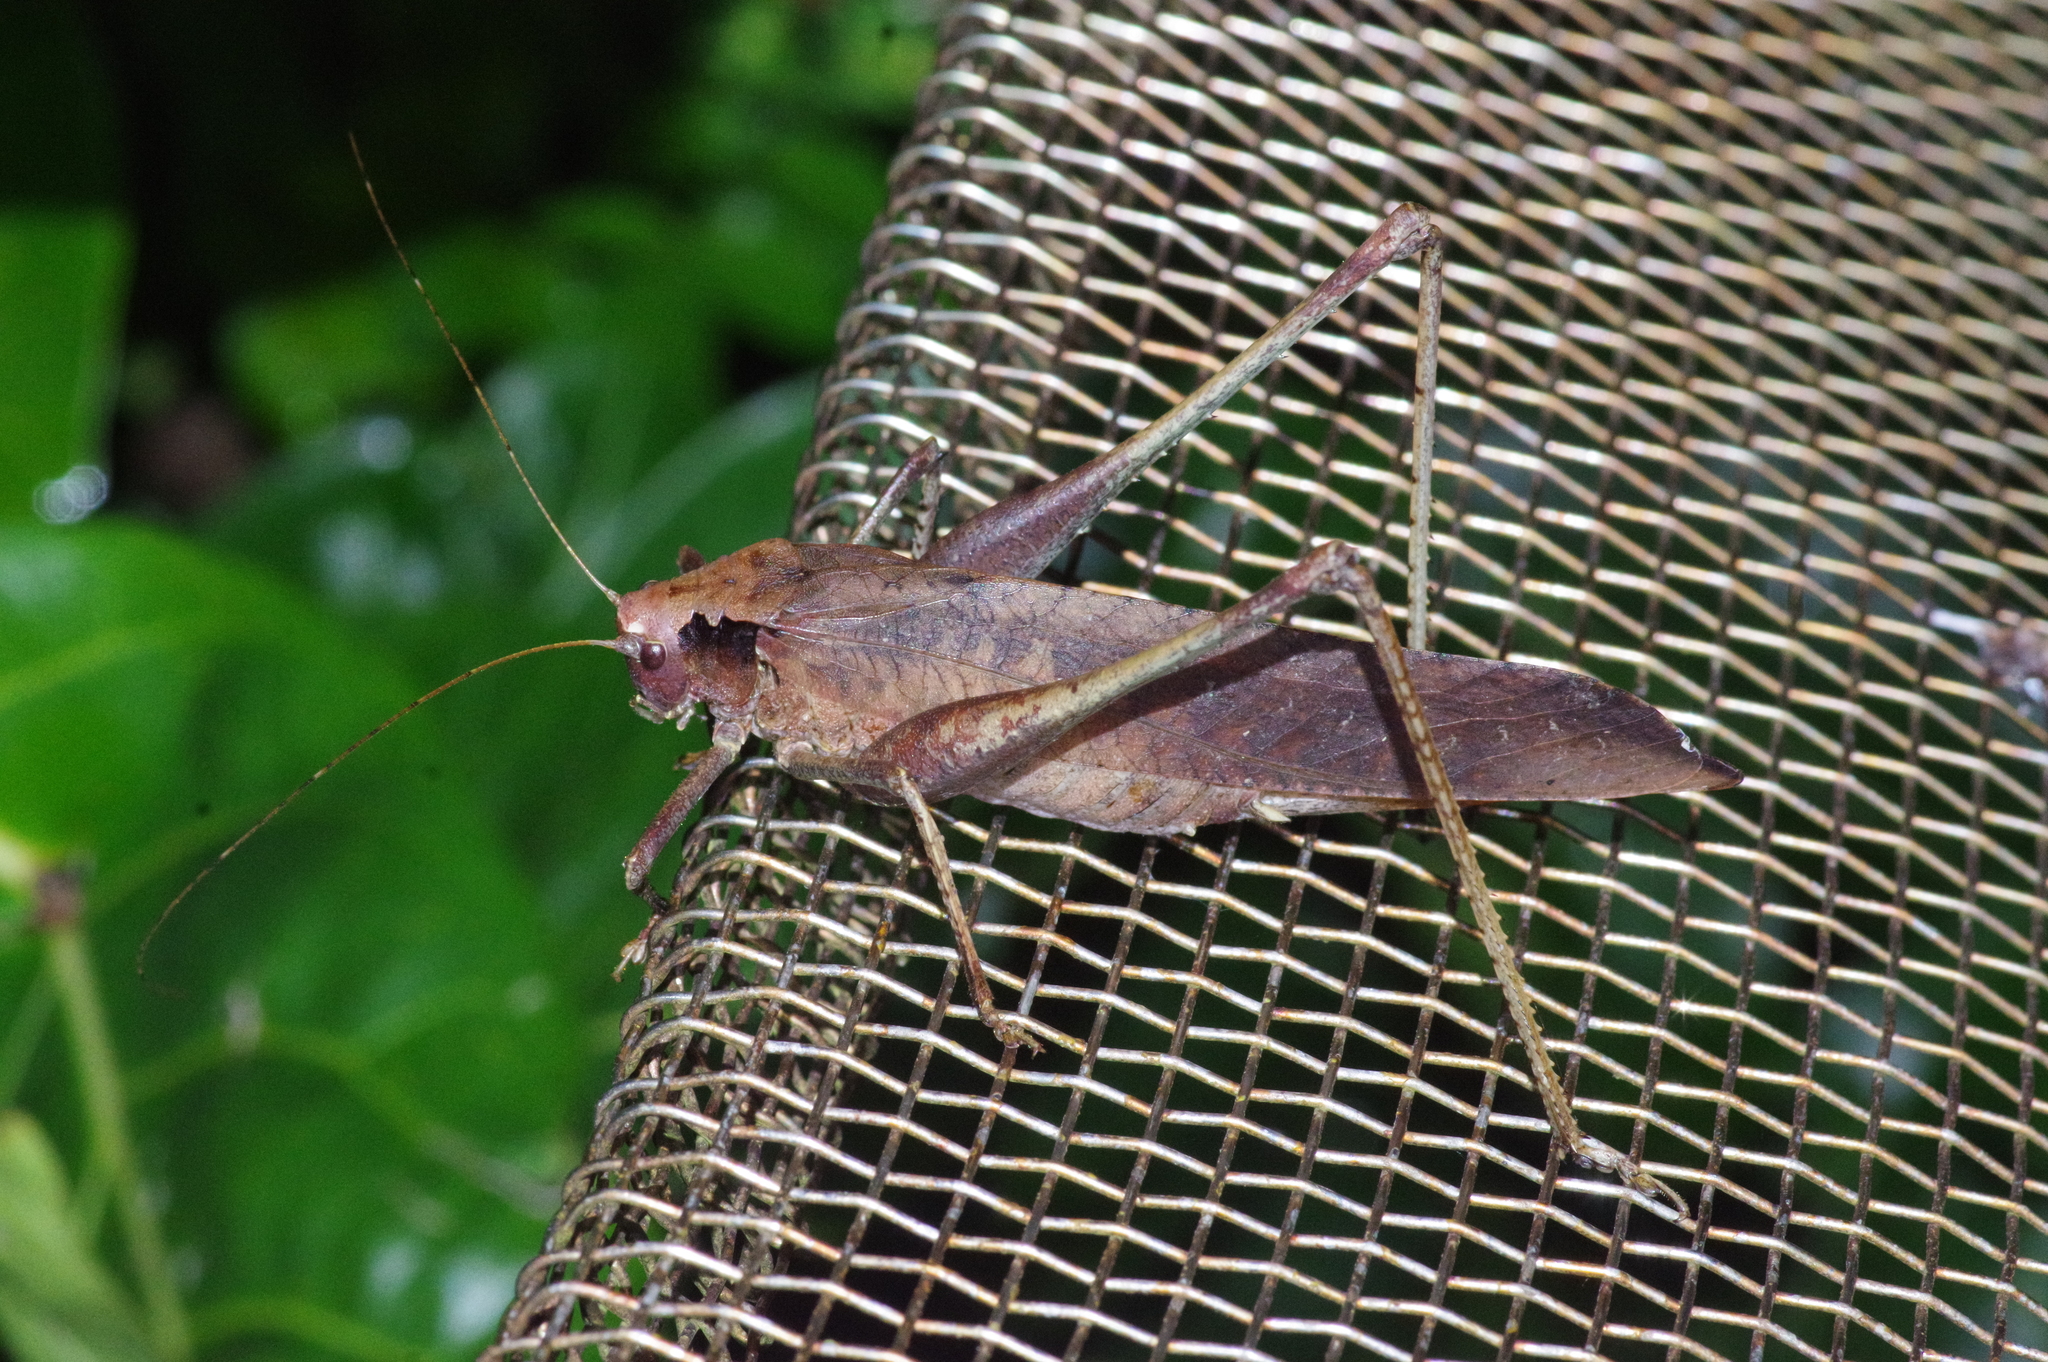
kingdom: Animalia
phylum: Arthropoda
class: Insecta
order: Orthoptera
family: Tettigoniidae
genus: Mecopoda
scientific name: Mecopoda elongata
